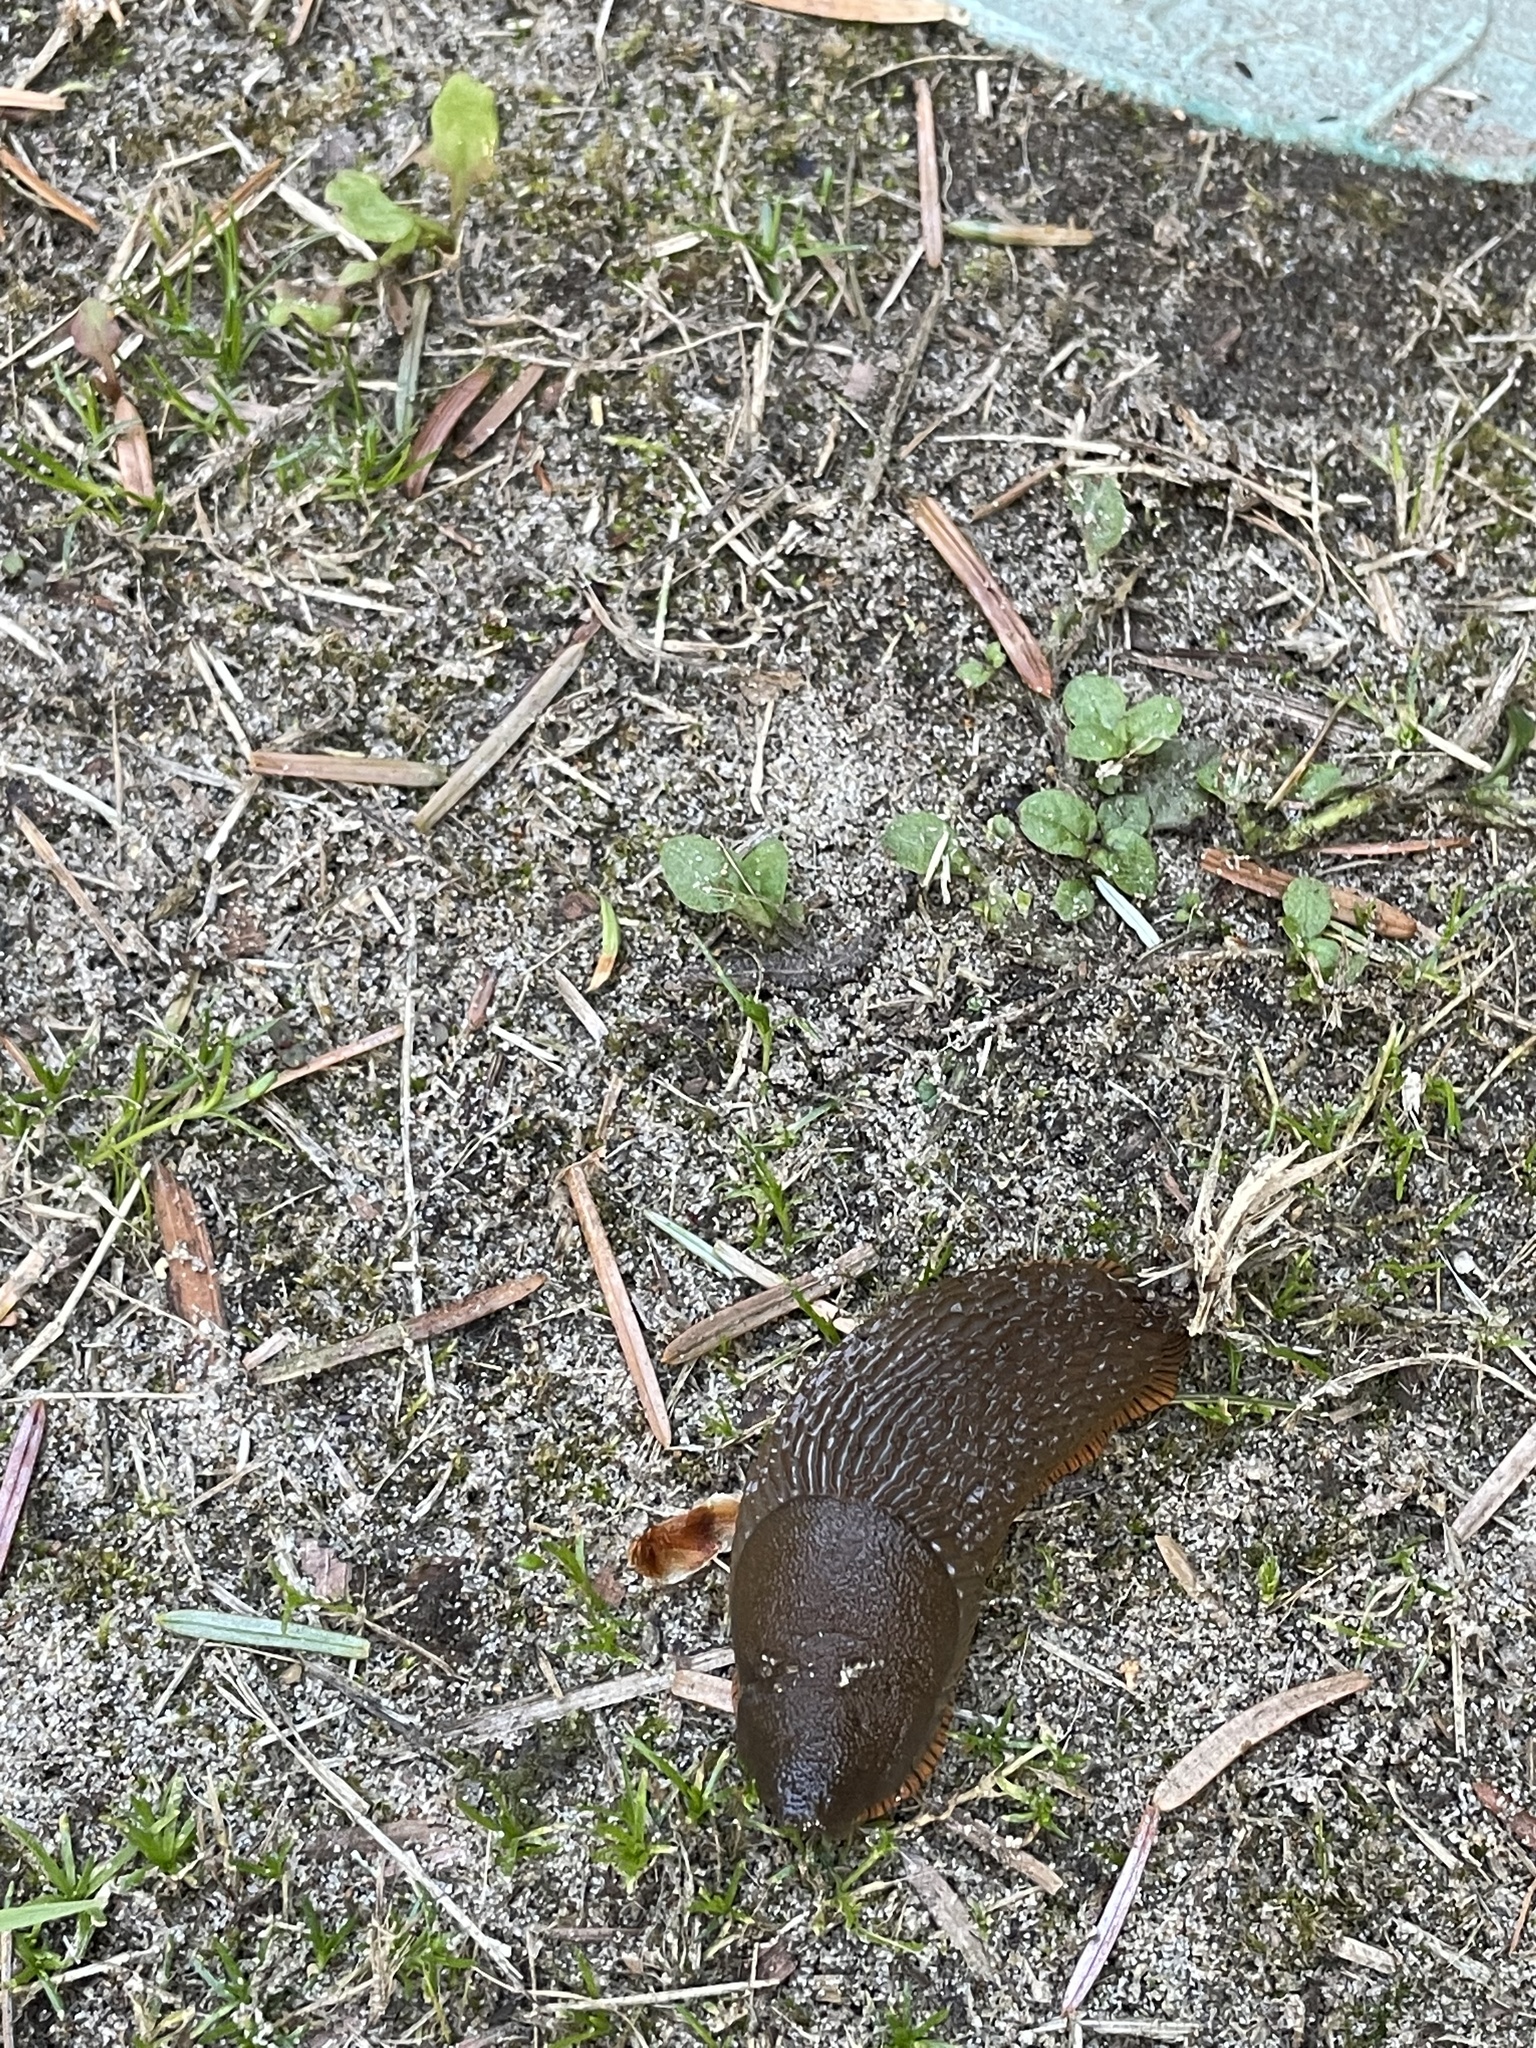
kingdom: Animalia
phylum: Mollusca
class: Gastropoda
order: Stylommatophora
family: Arionidae
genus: Arion
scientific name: Arion rufus
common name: Chocolate arion
